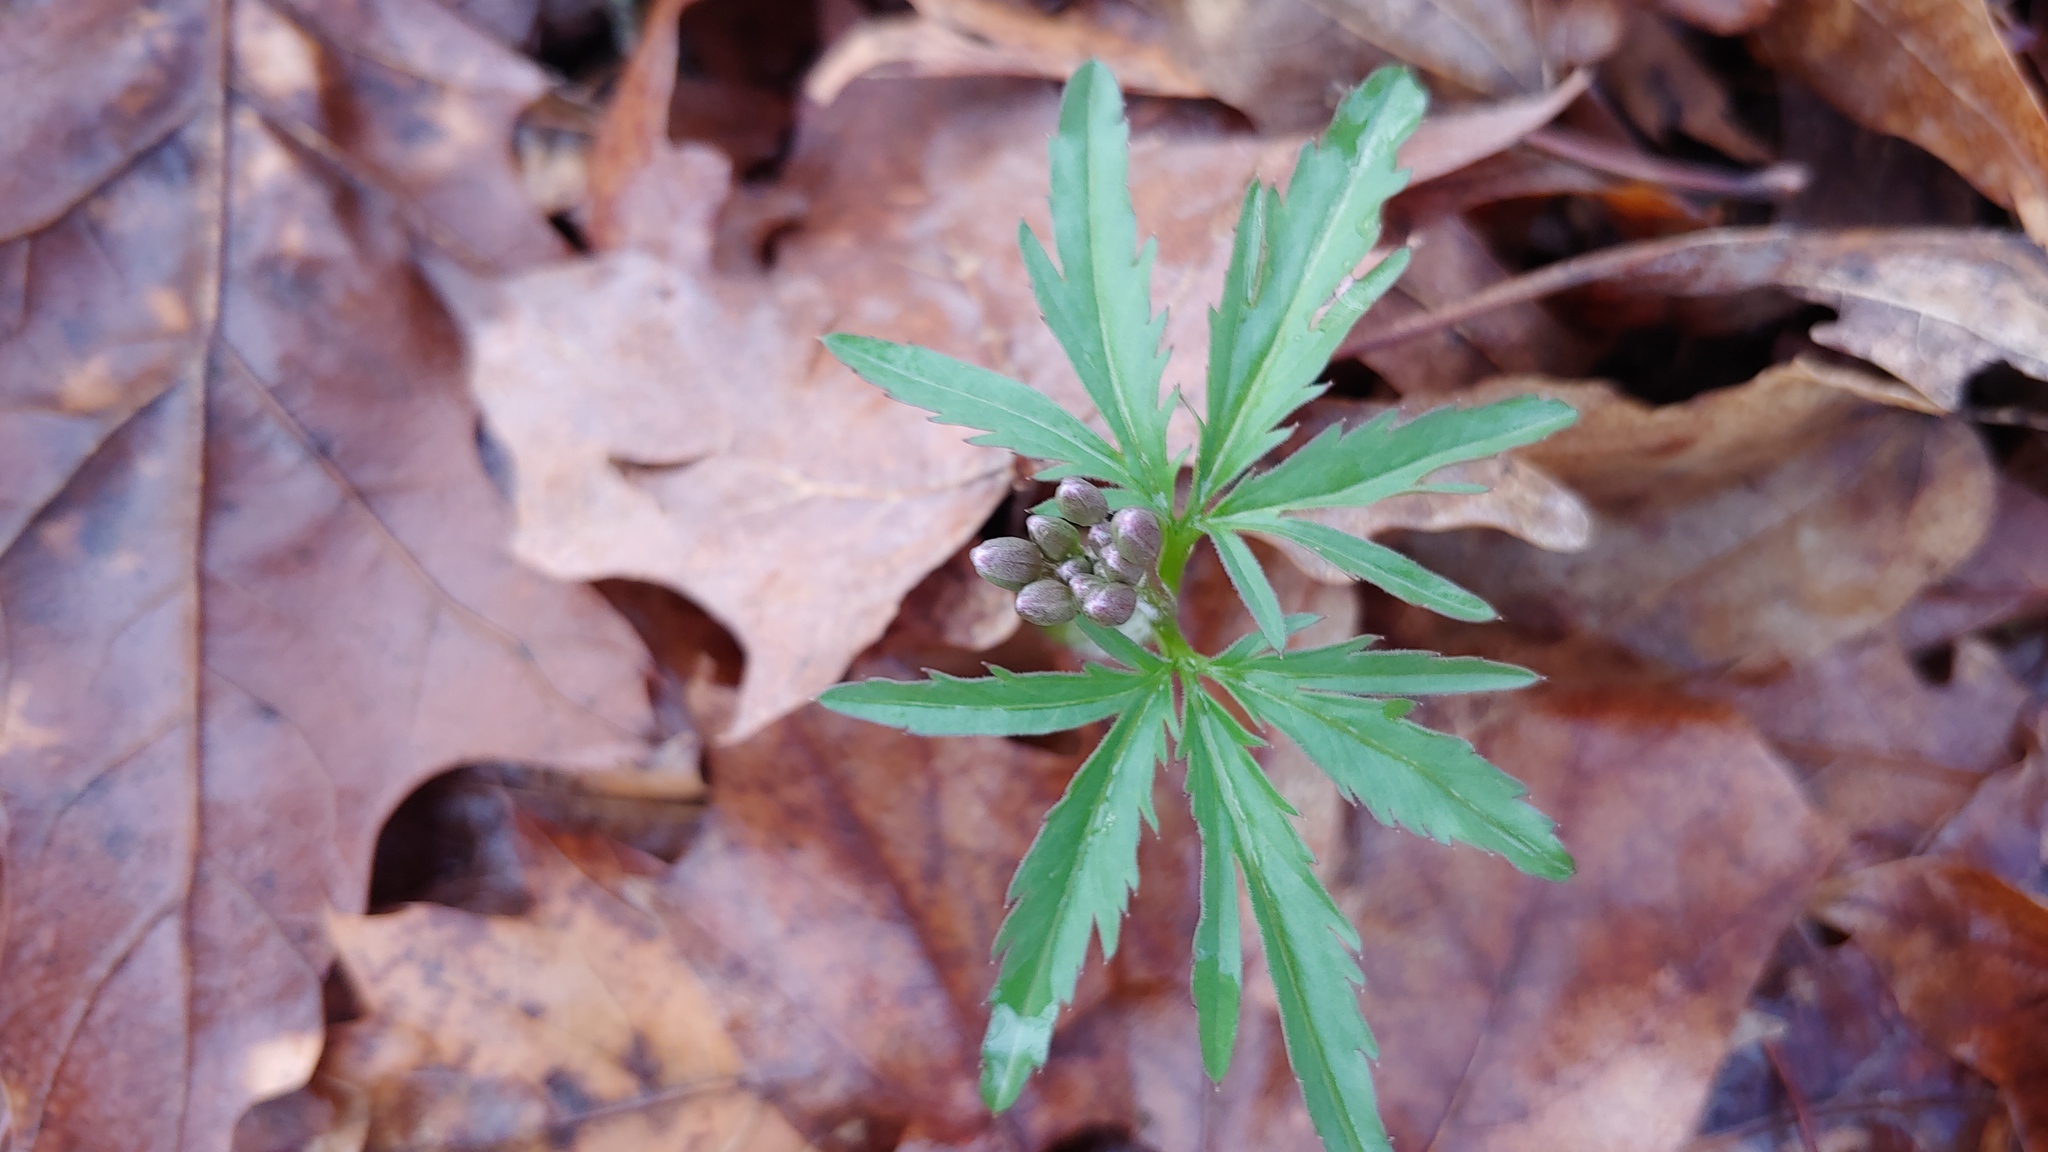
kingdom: Plantae
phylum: Tracheophyta
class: Magnoliopsida
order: Brassicales
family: Brassicaceae
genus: Cardamine
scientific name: Cardamine concatenata
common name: Cut-leaf toothcup
